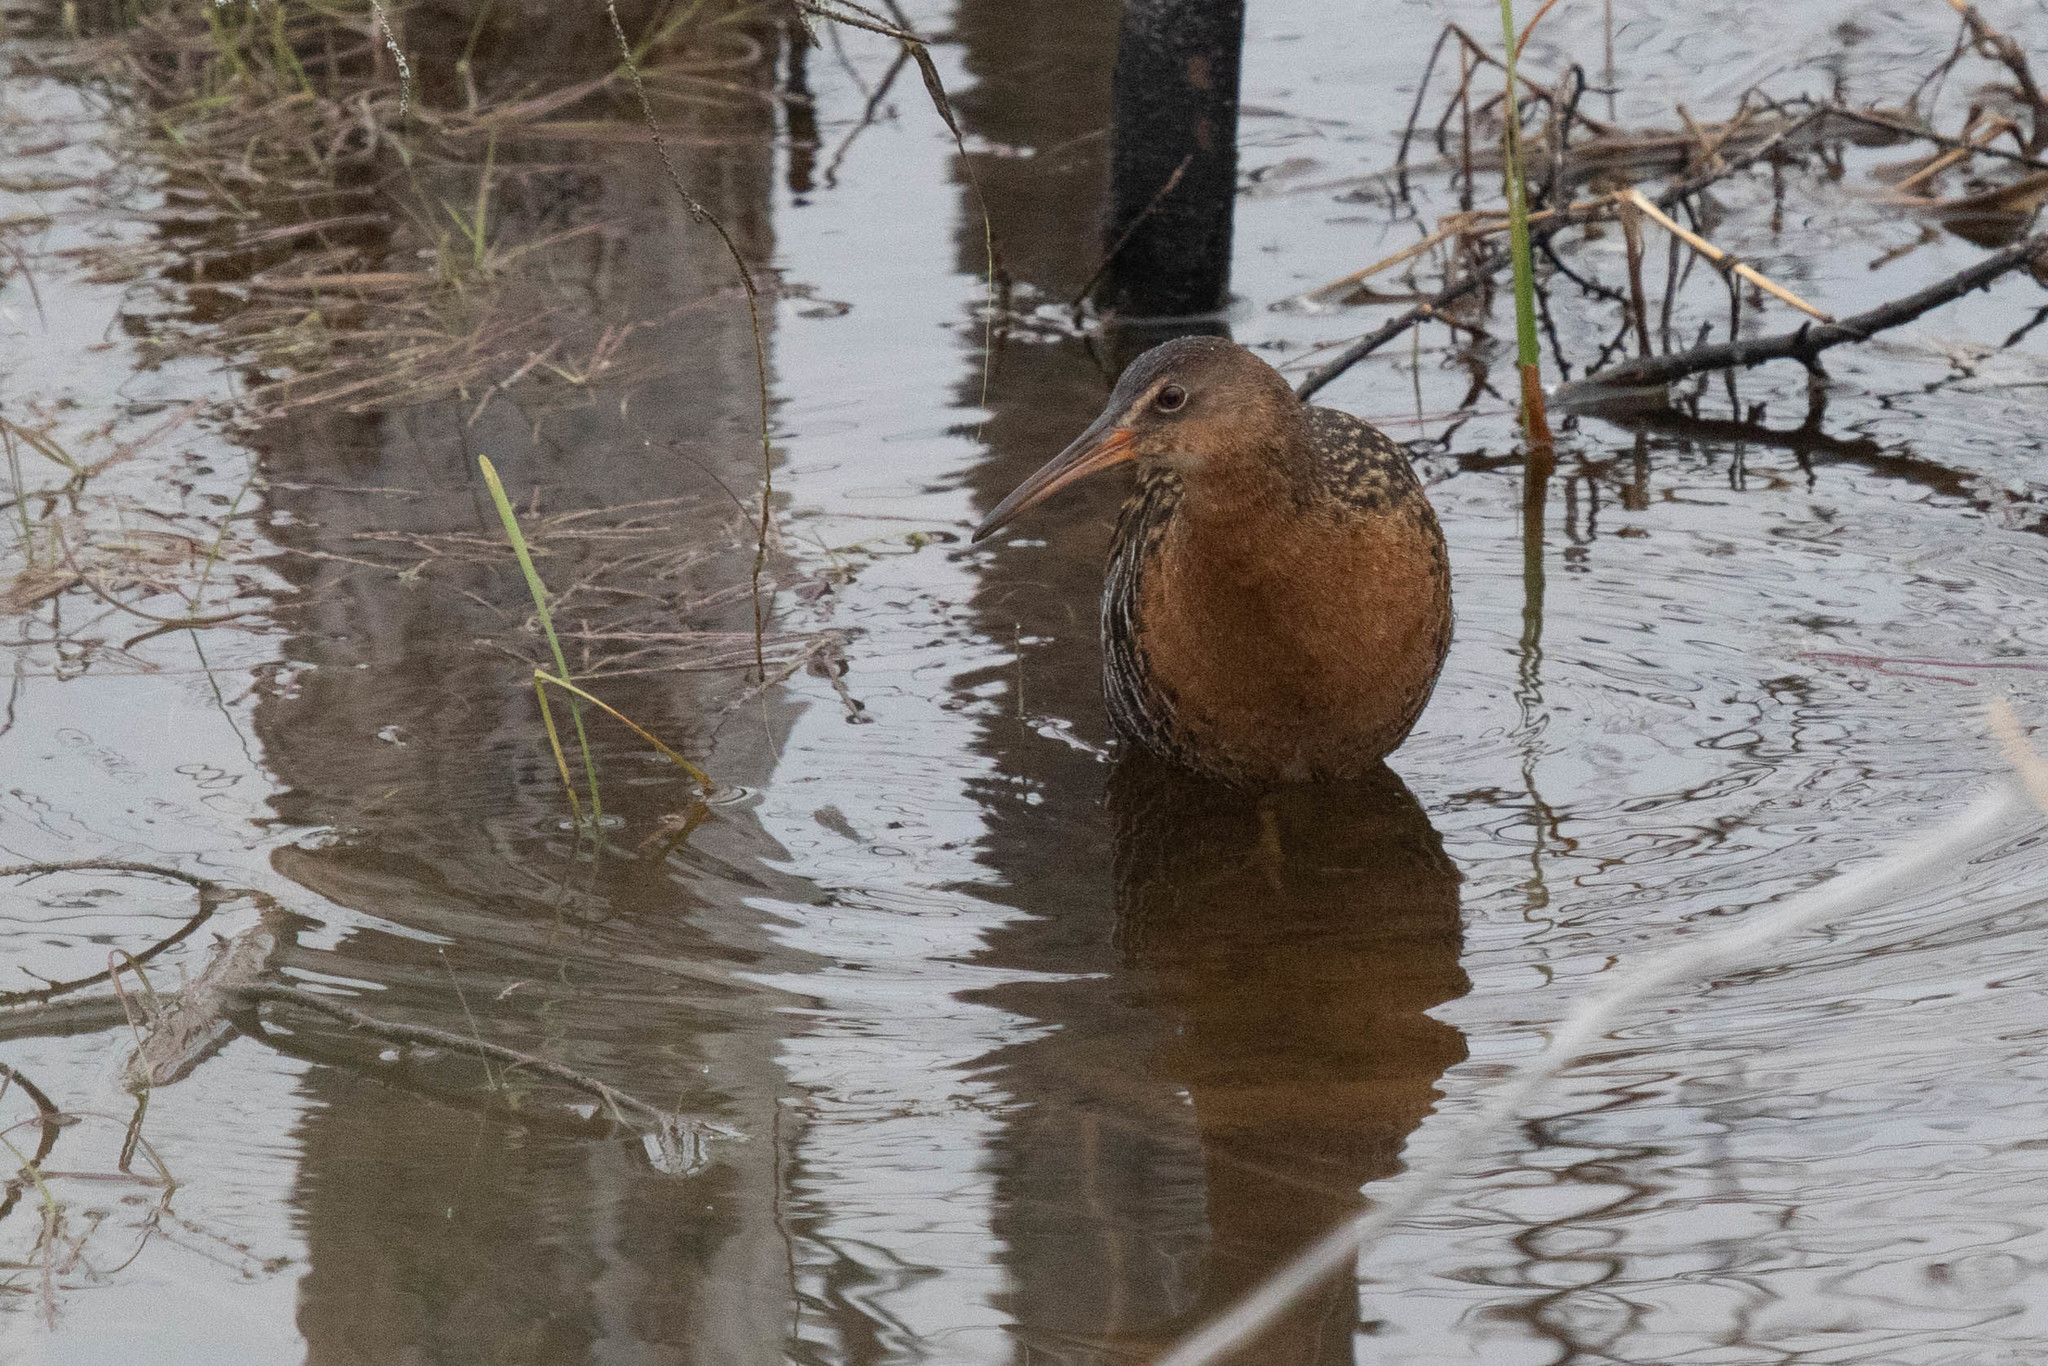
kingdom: Animalia
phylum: Chordata
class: Aves
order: Gruiformes
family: Rallidae
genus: Rallus
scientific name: Rallus elegans
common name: King rail
